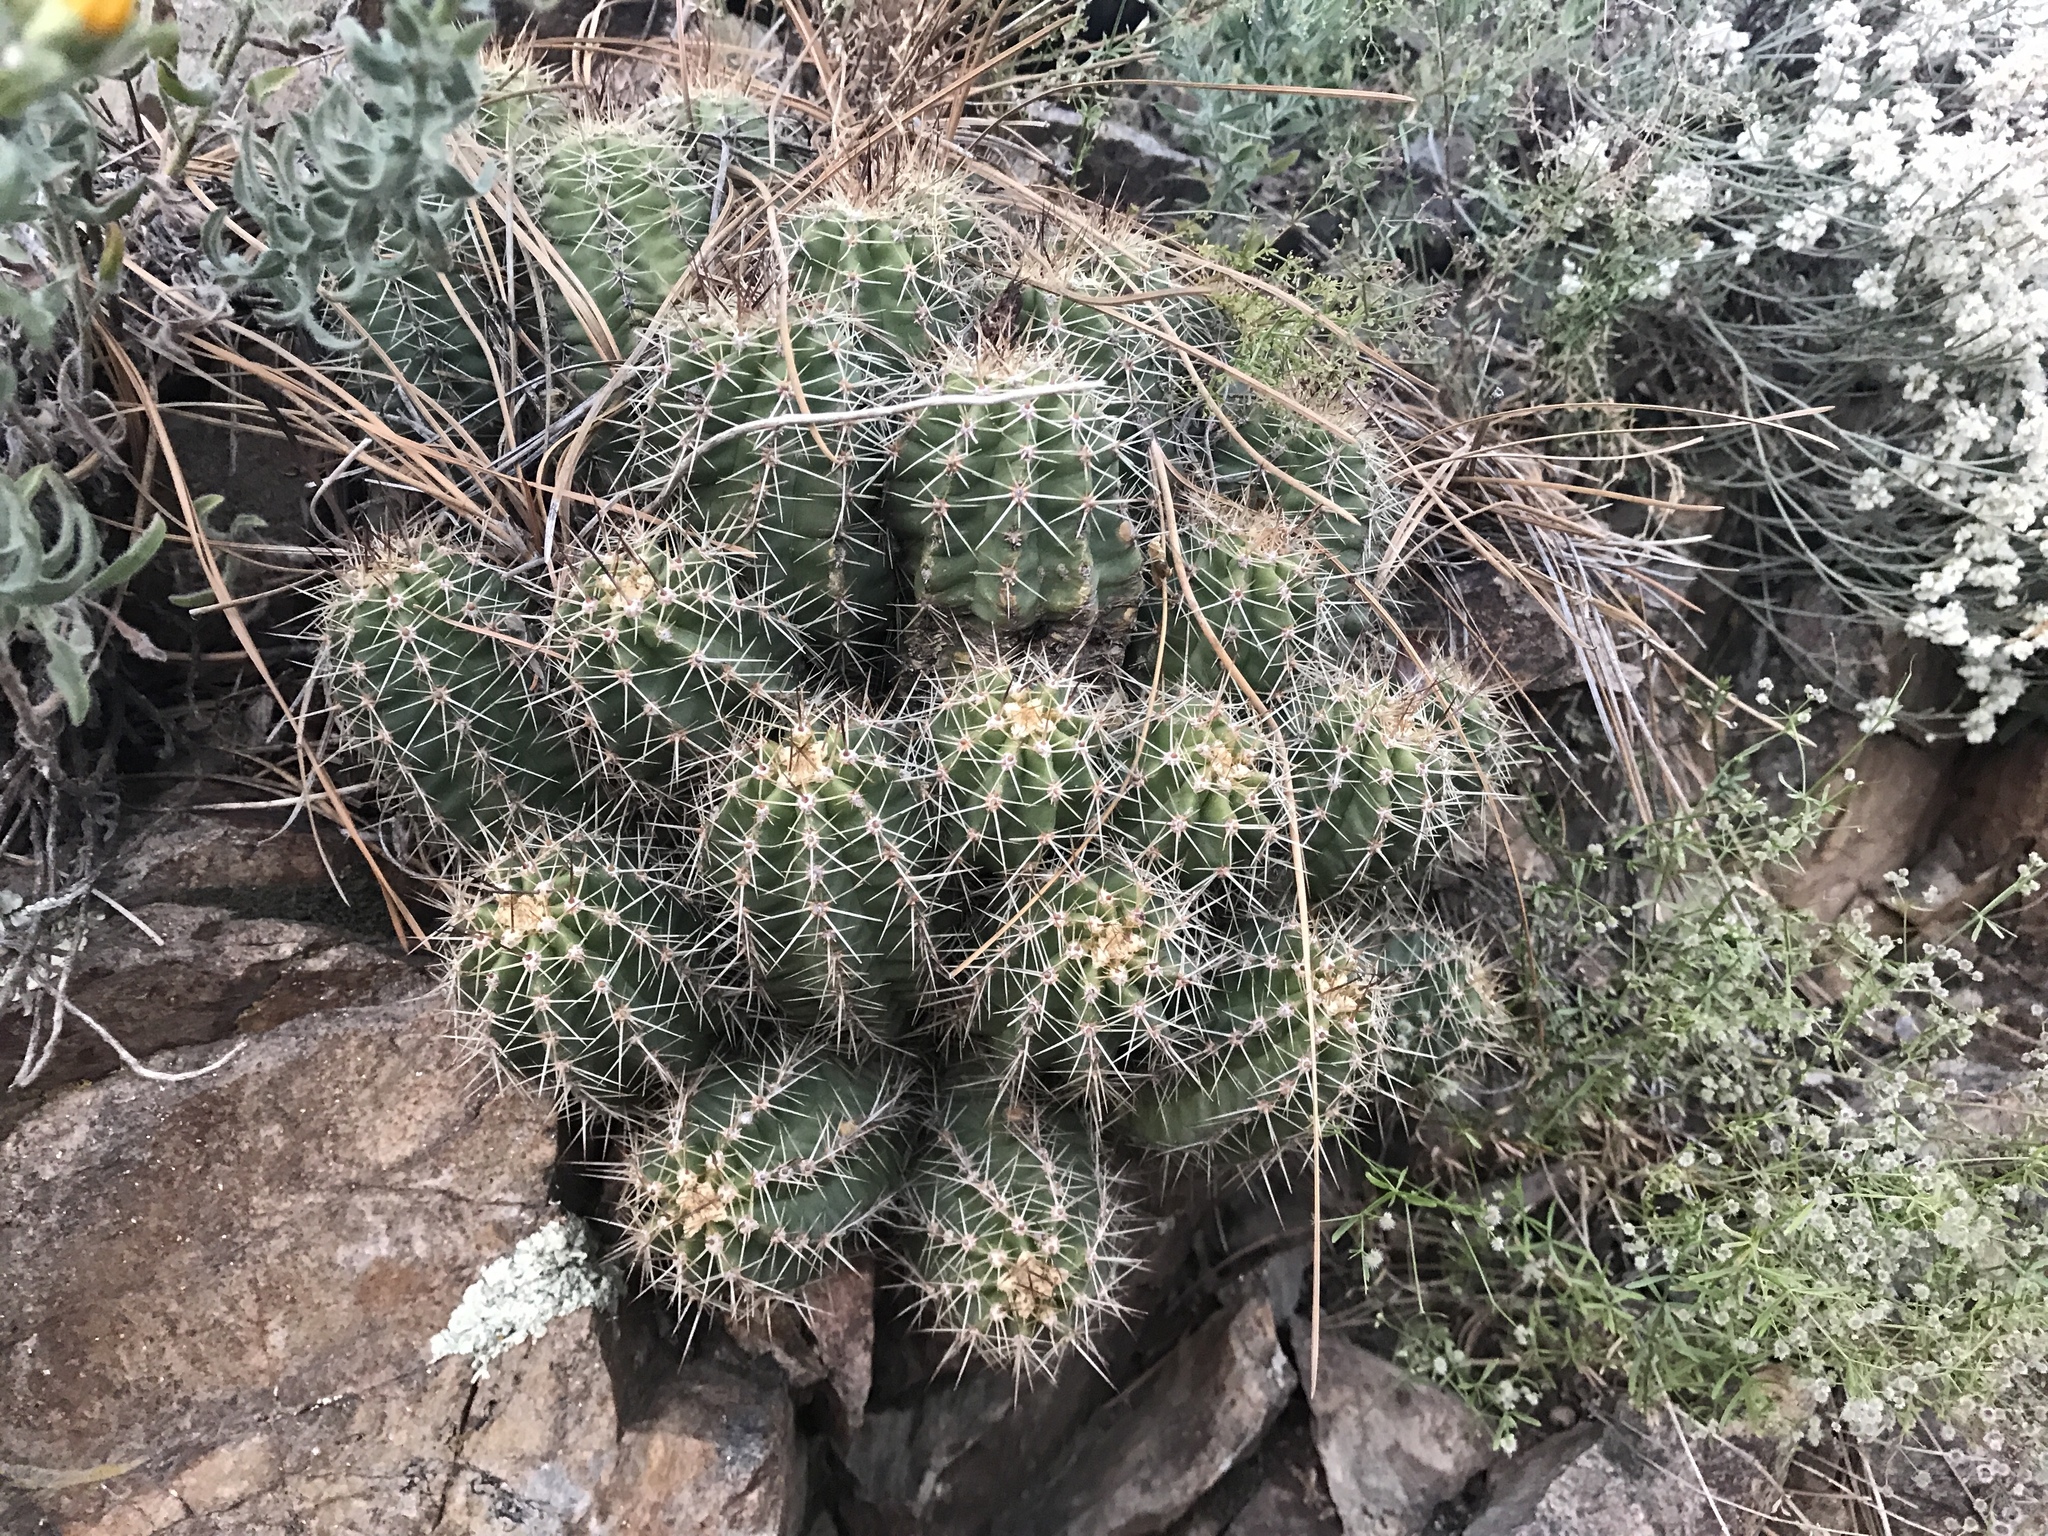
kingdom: Plantae
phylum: Tracheophyta
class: Magnoliopsida
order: Caryophyllales
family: Cactaceae
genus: Echinocereus
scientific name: Echinocereus coccineus
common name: Scarlet hedgehog cactus
